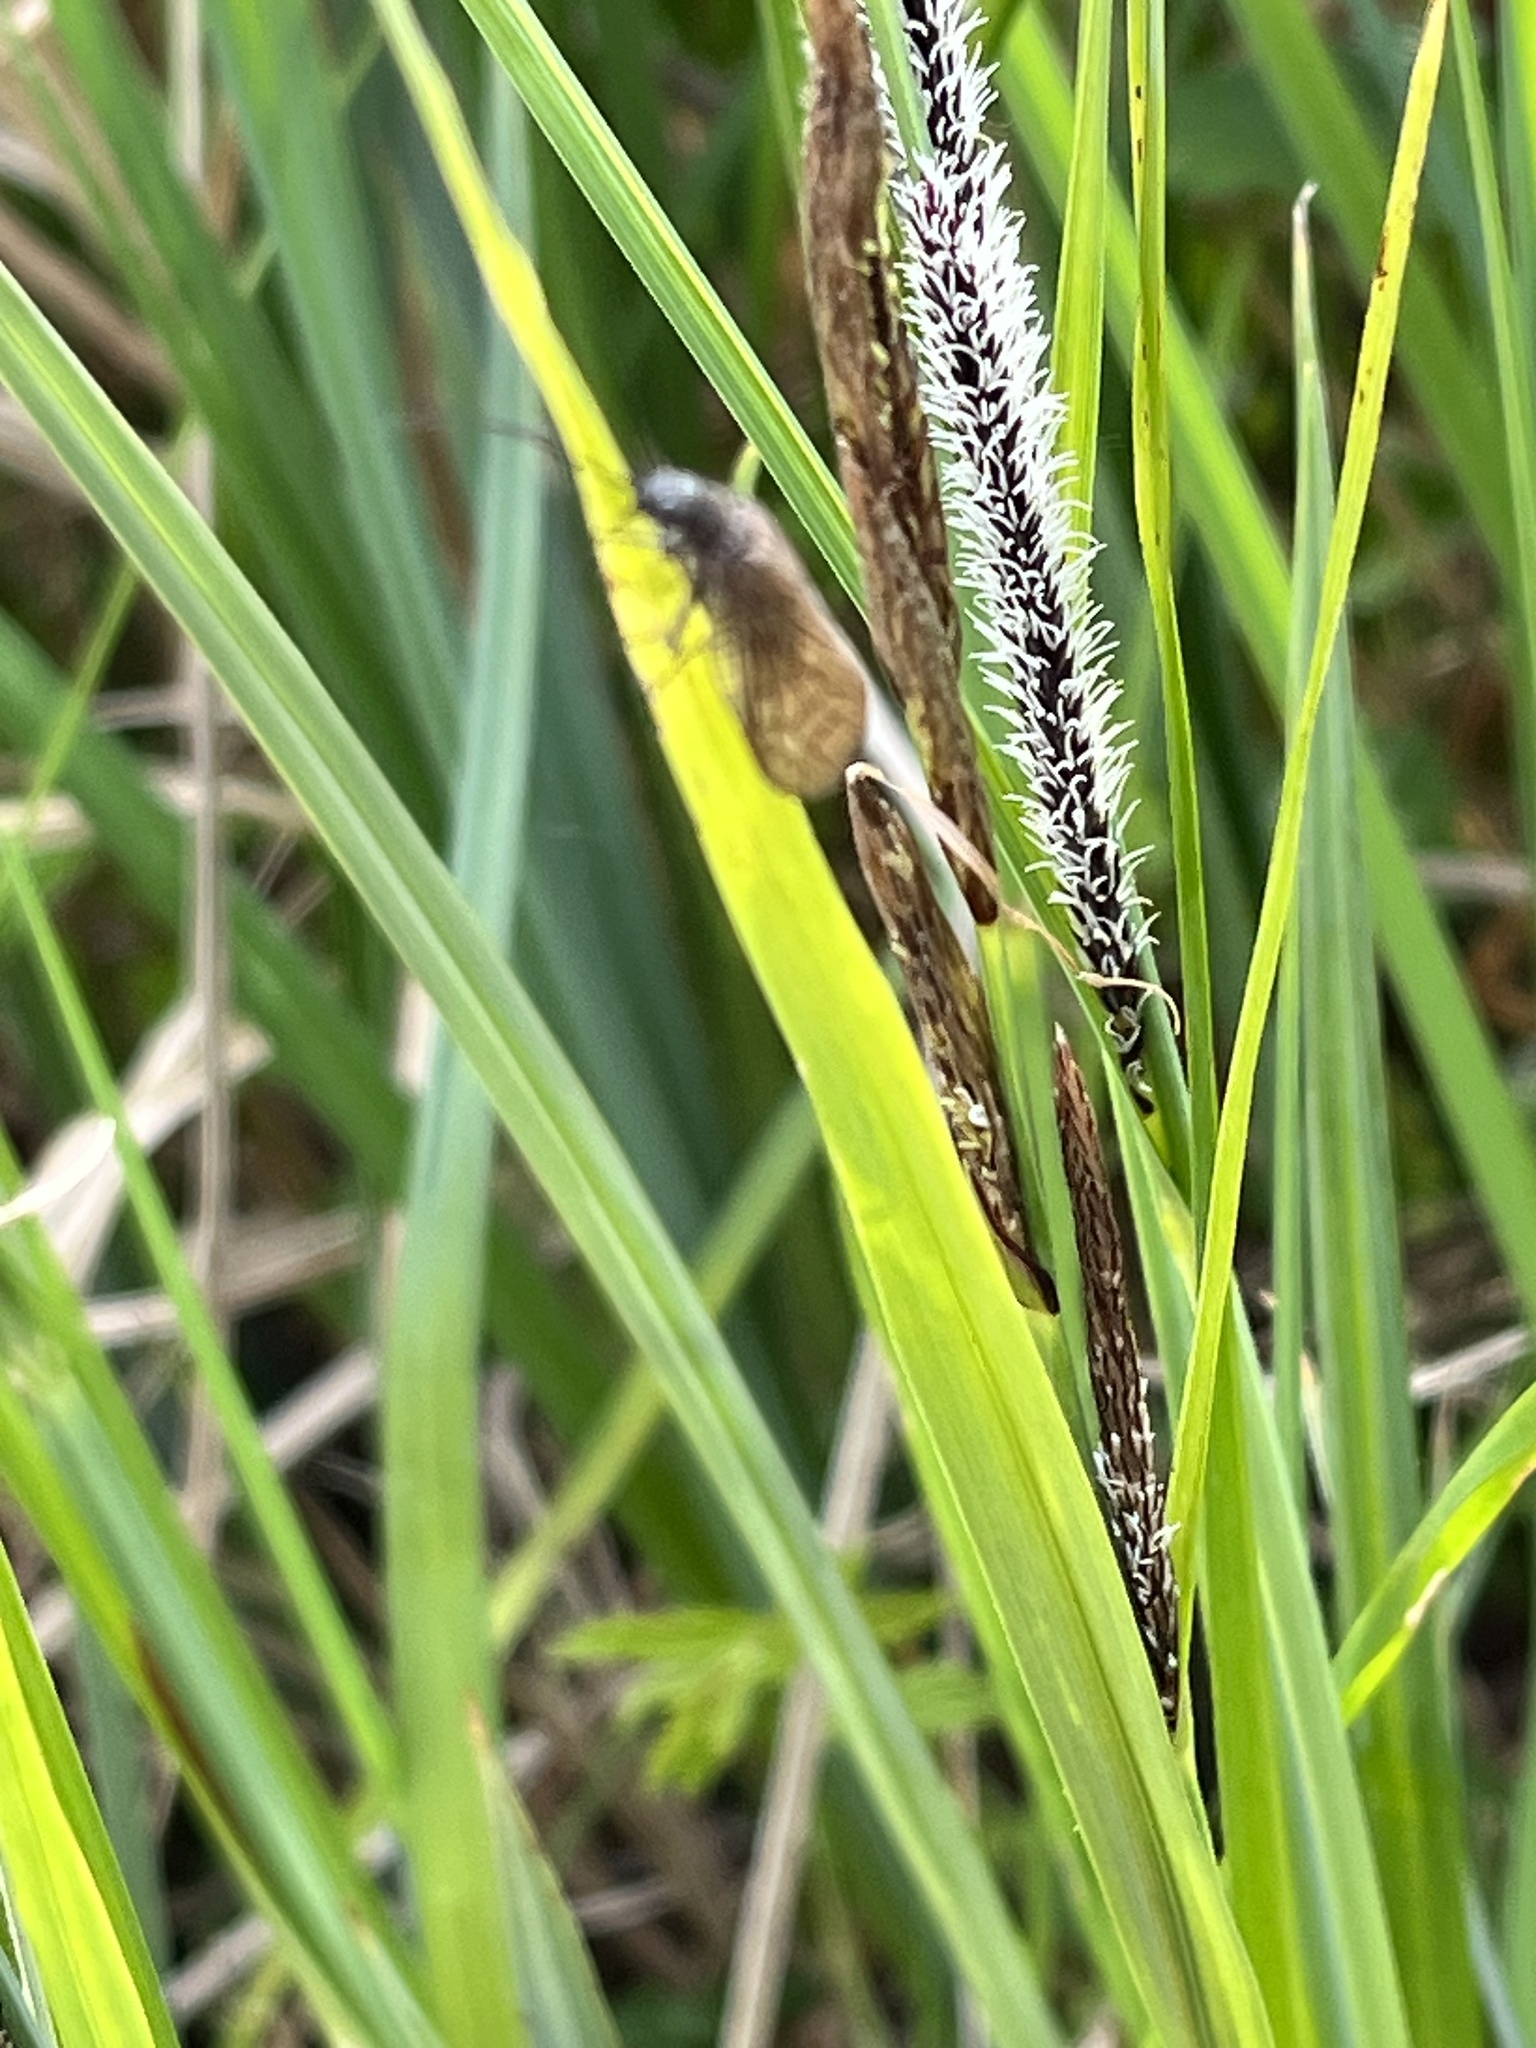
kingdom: Animalia
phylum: Arthropoda
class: Insecta
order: Megaloptera
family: Sialidae
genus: Sialis
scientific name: Sialis
